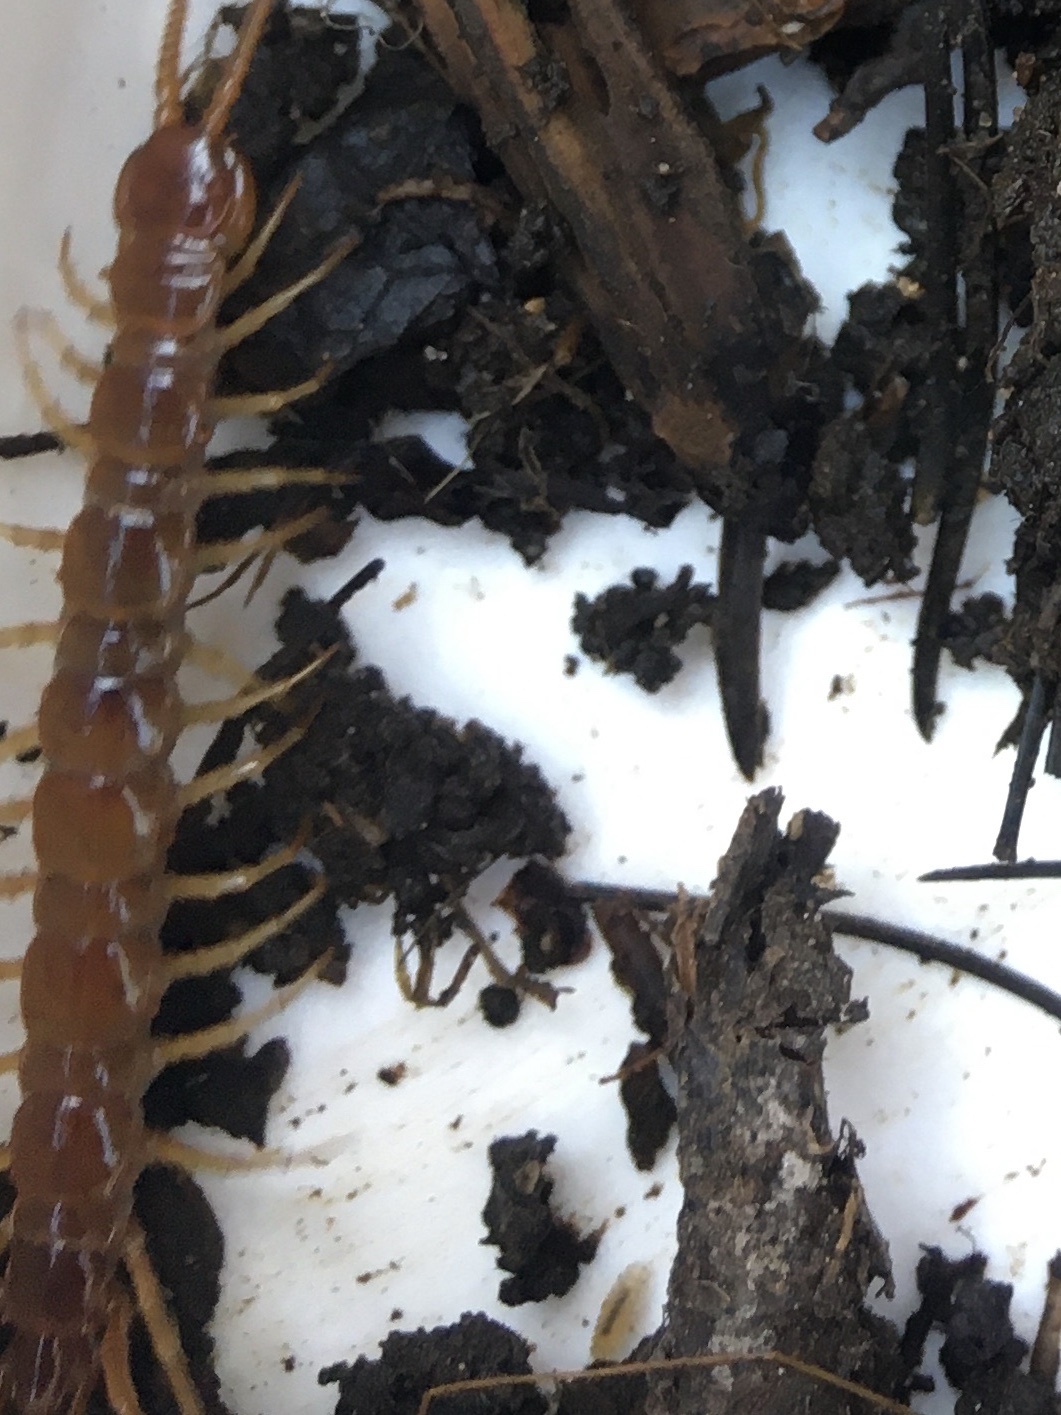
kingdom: Animalia
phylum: Arthropoda
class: Chilopoda
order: Lithobiomorpha
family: Lithobiidae
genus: Lithobius
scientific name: Lithobius forficatus
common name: Centipede
